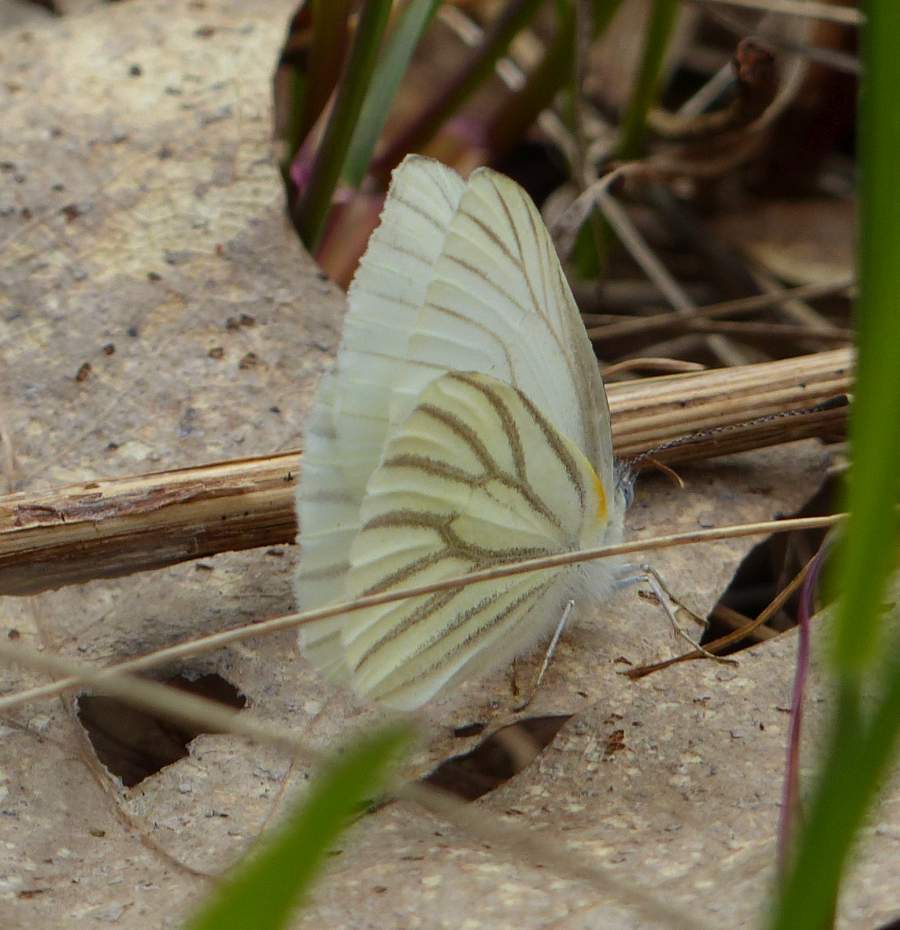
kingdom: Animalia
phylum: Arthropoda
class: Insecta
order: Lepidoptera
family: Pieridae
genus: Pieris
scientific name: Pieris oleracea
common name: Mustard white
